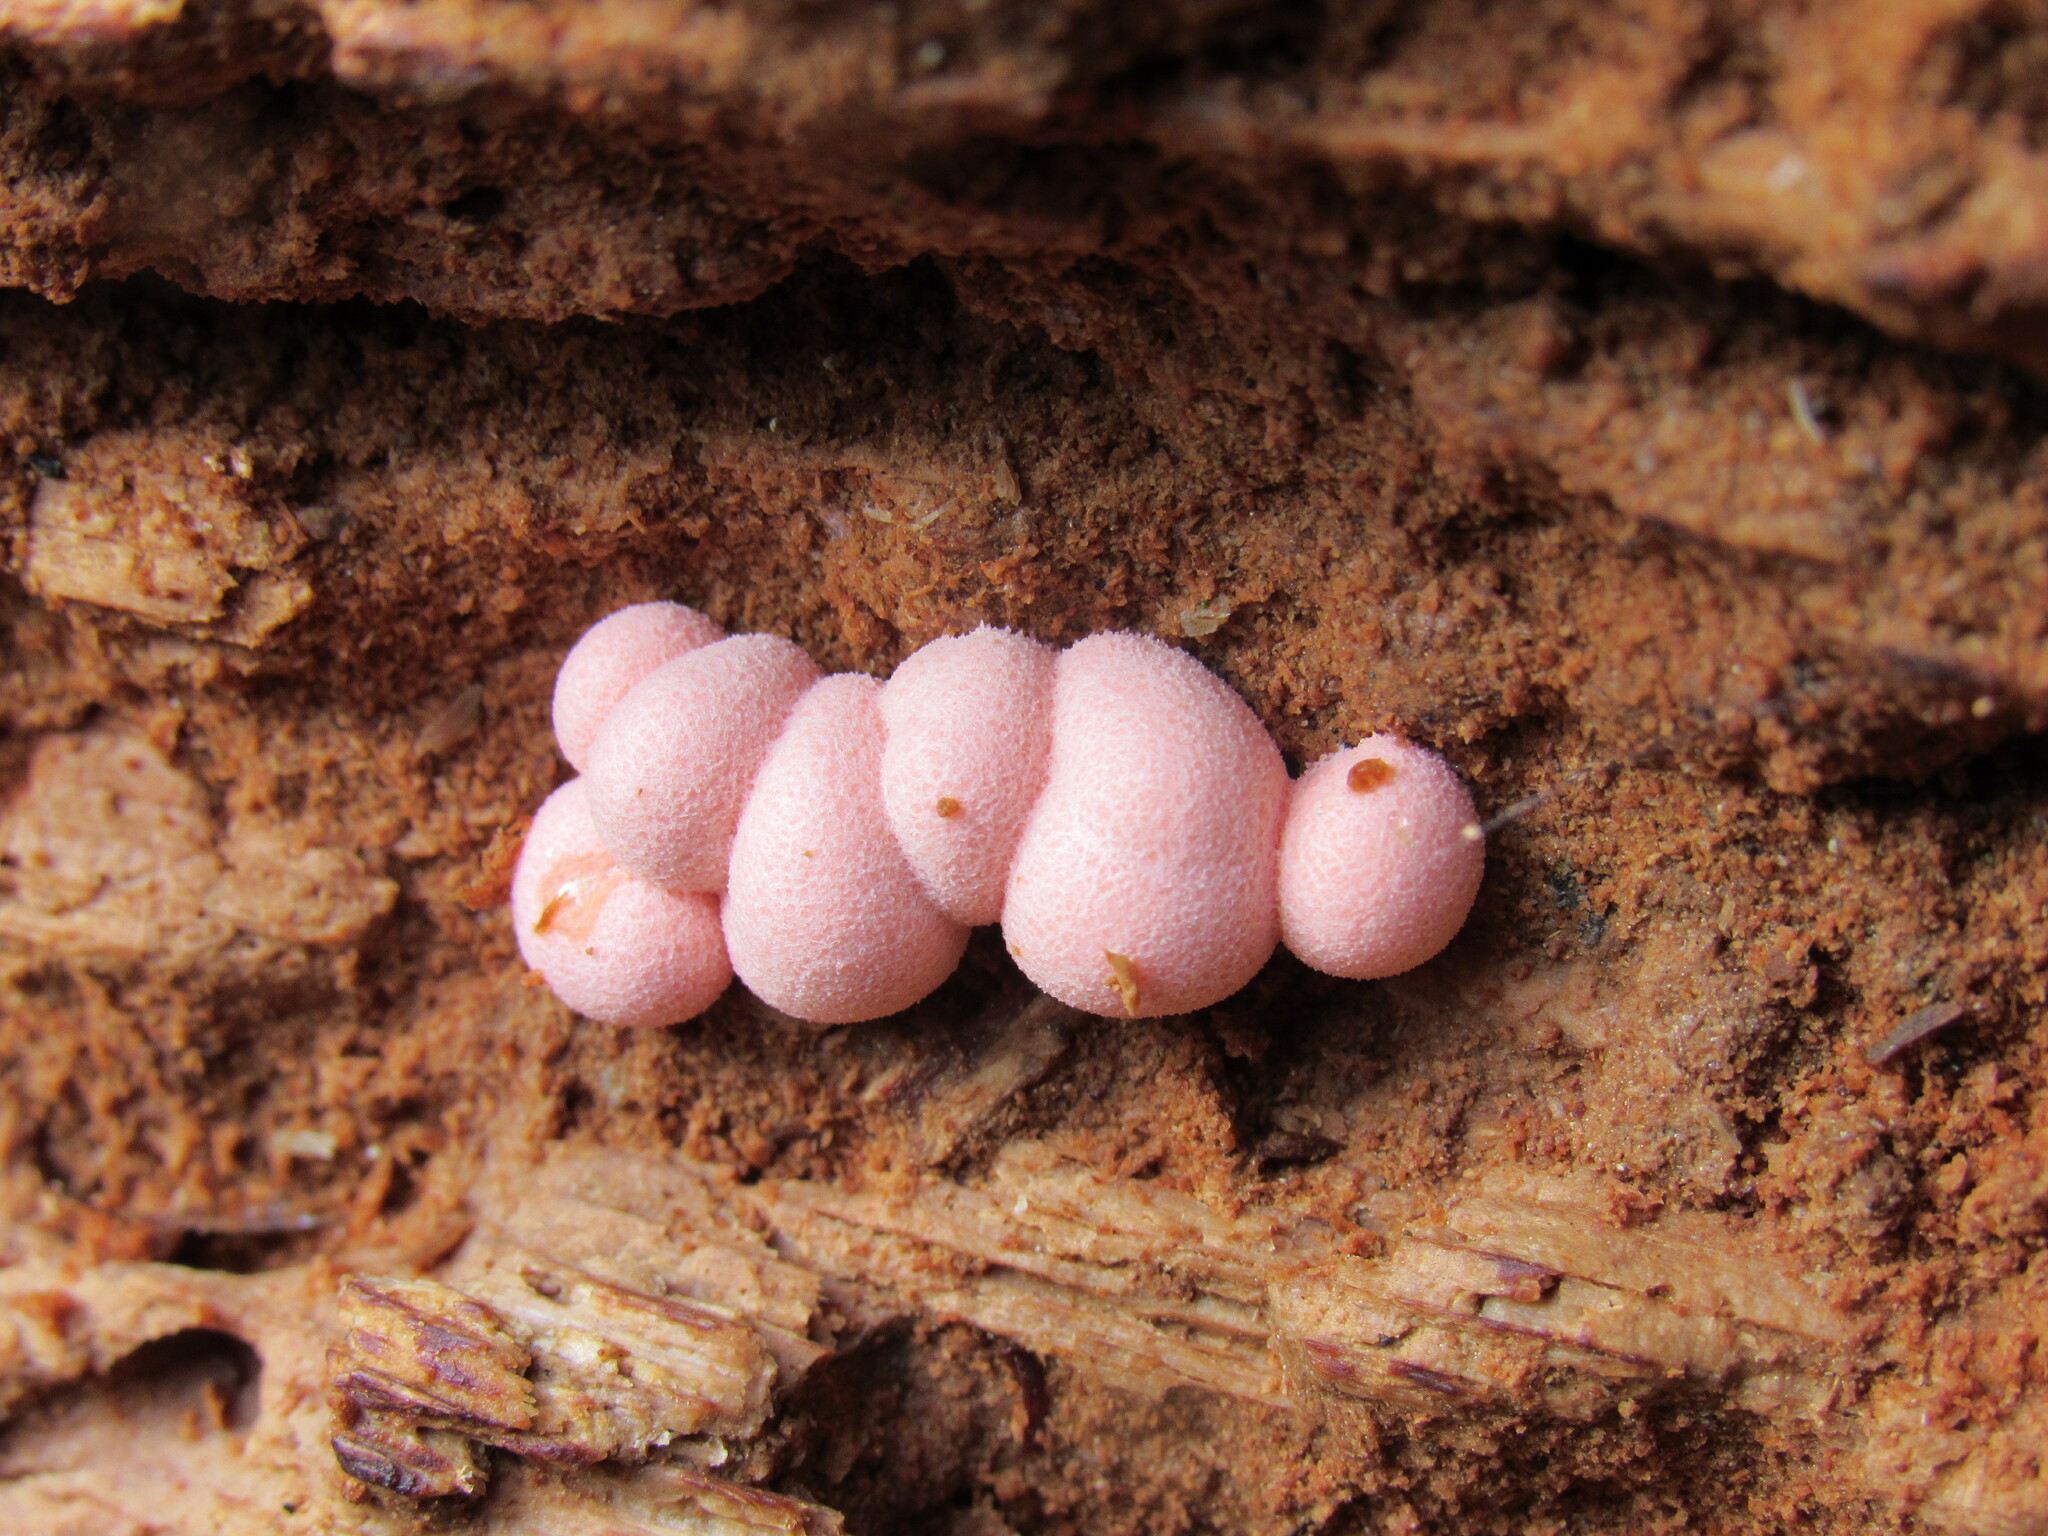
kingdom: Protozoa
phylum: Mycetozoa
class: Myxomycetes
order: Cribrariales
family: Tubiferaceae
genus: Lycogala
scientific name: Lycogala epidendrum
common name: Wolf's milk
